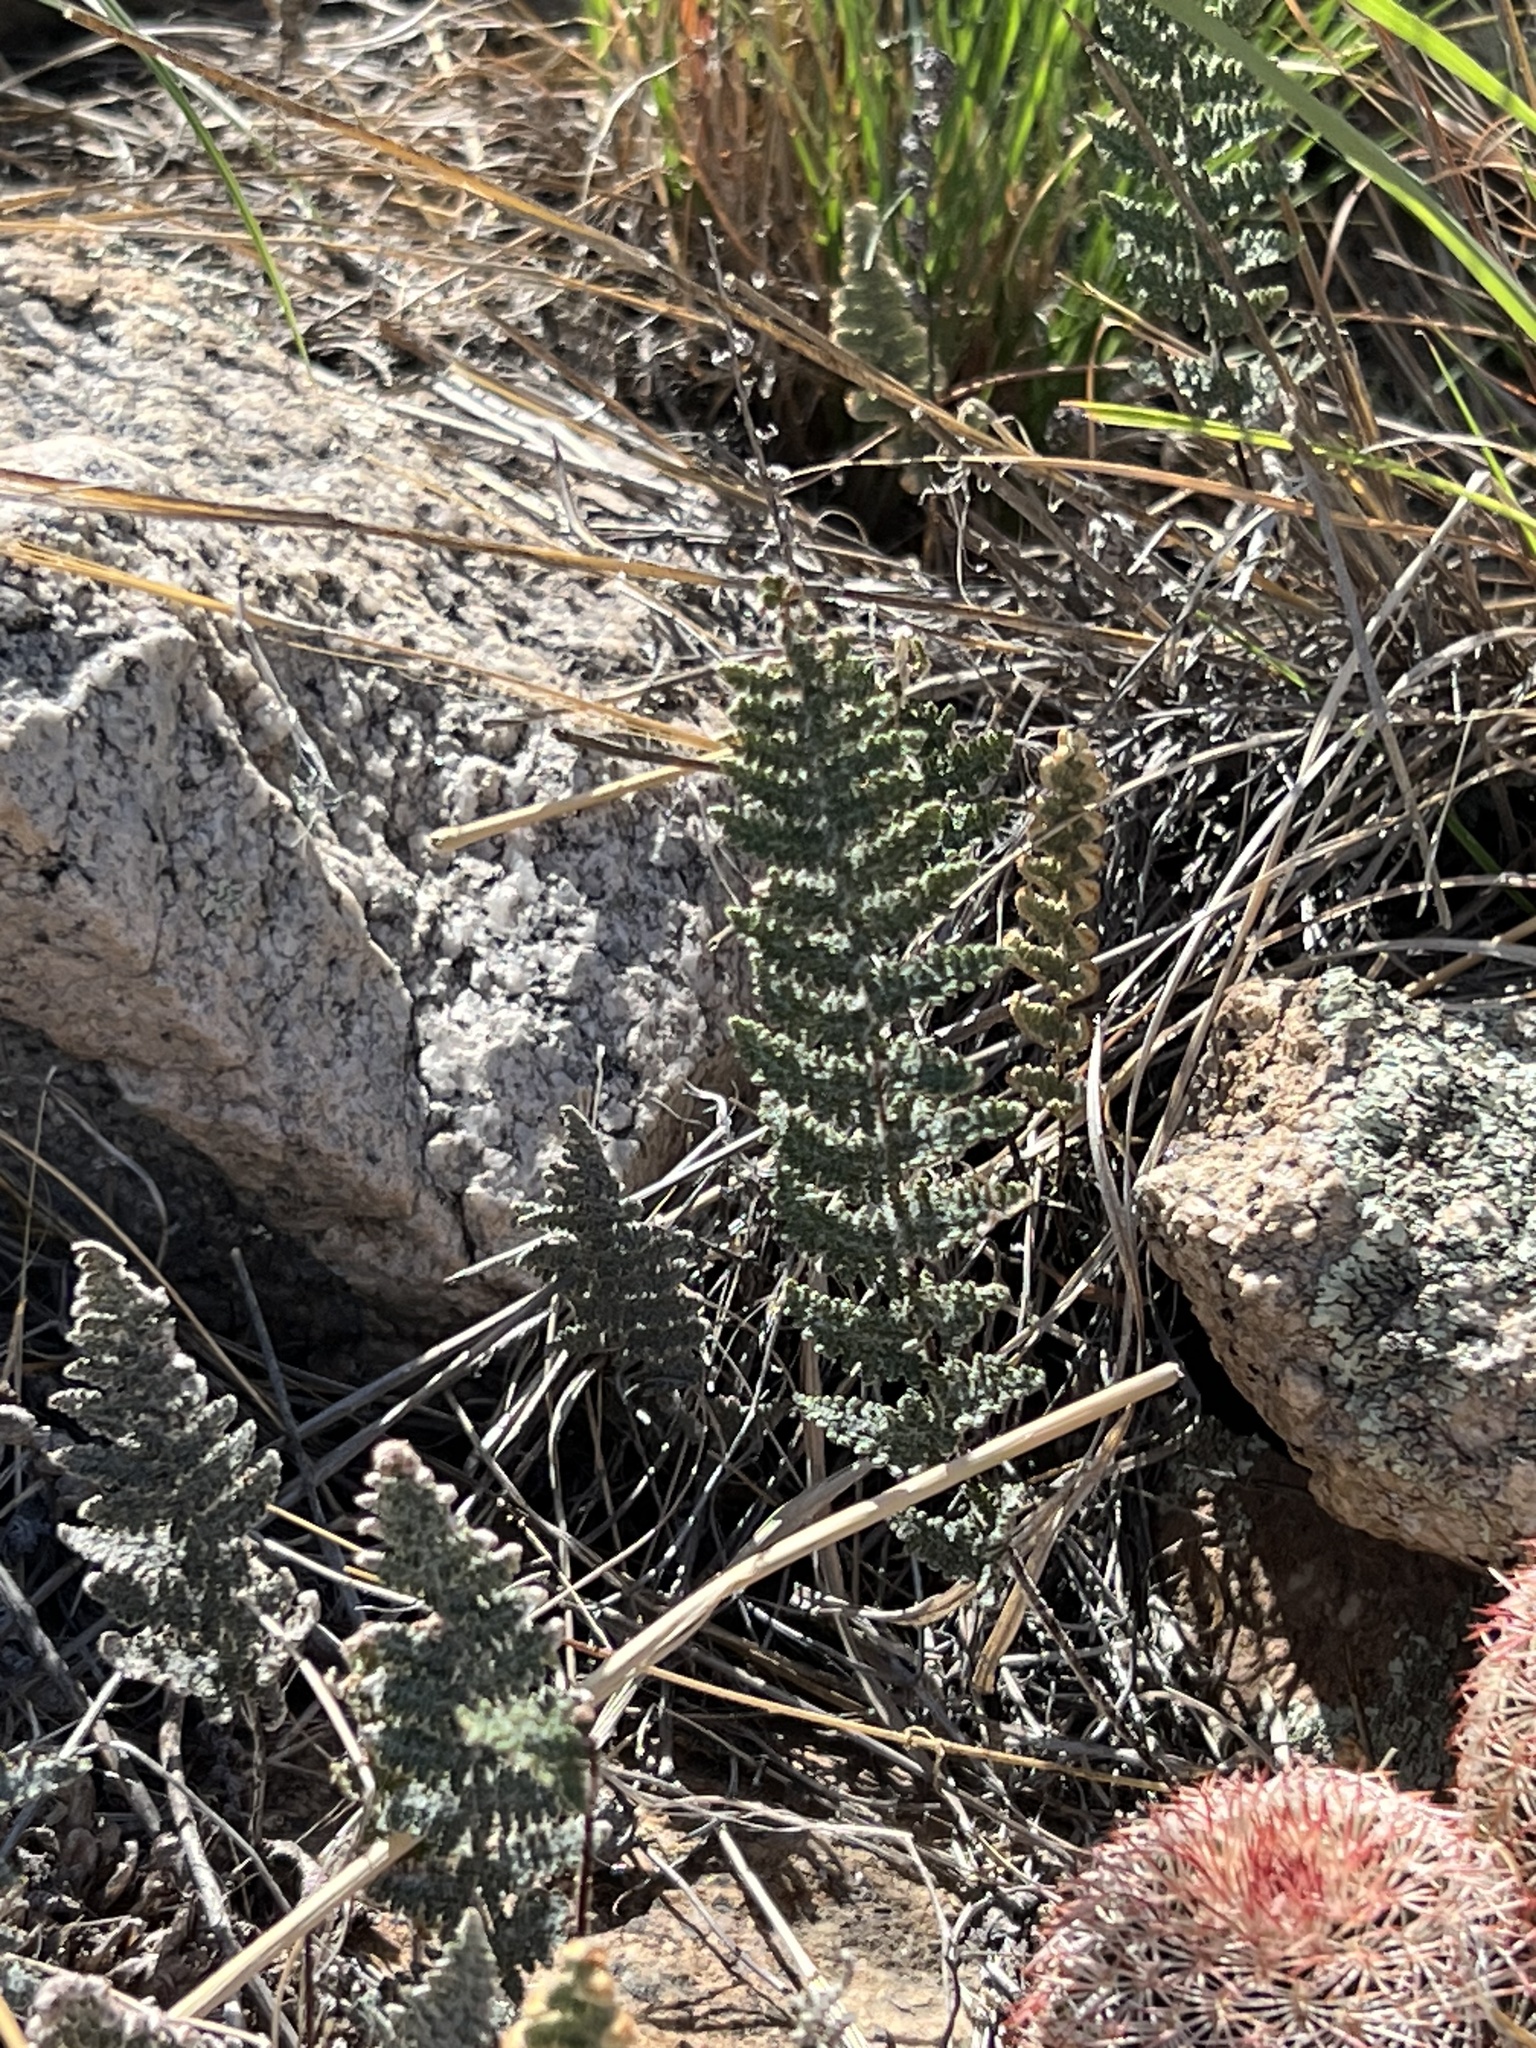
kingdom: Plantae
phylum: Tracheophyta
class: Polypodiopsida
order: Polypodiales
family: Pteridaceae
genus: Myriopteris
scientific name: Myriopteris lindheimeri
